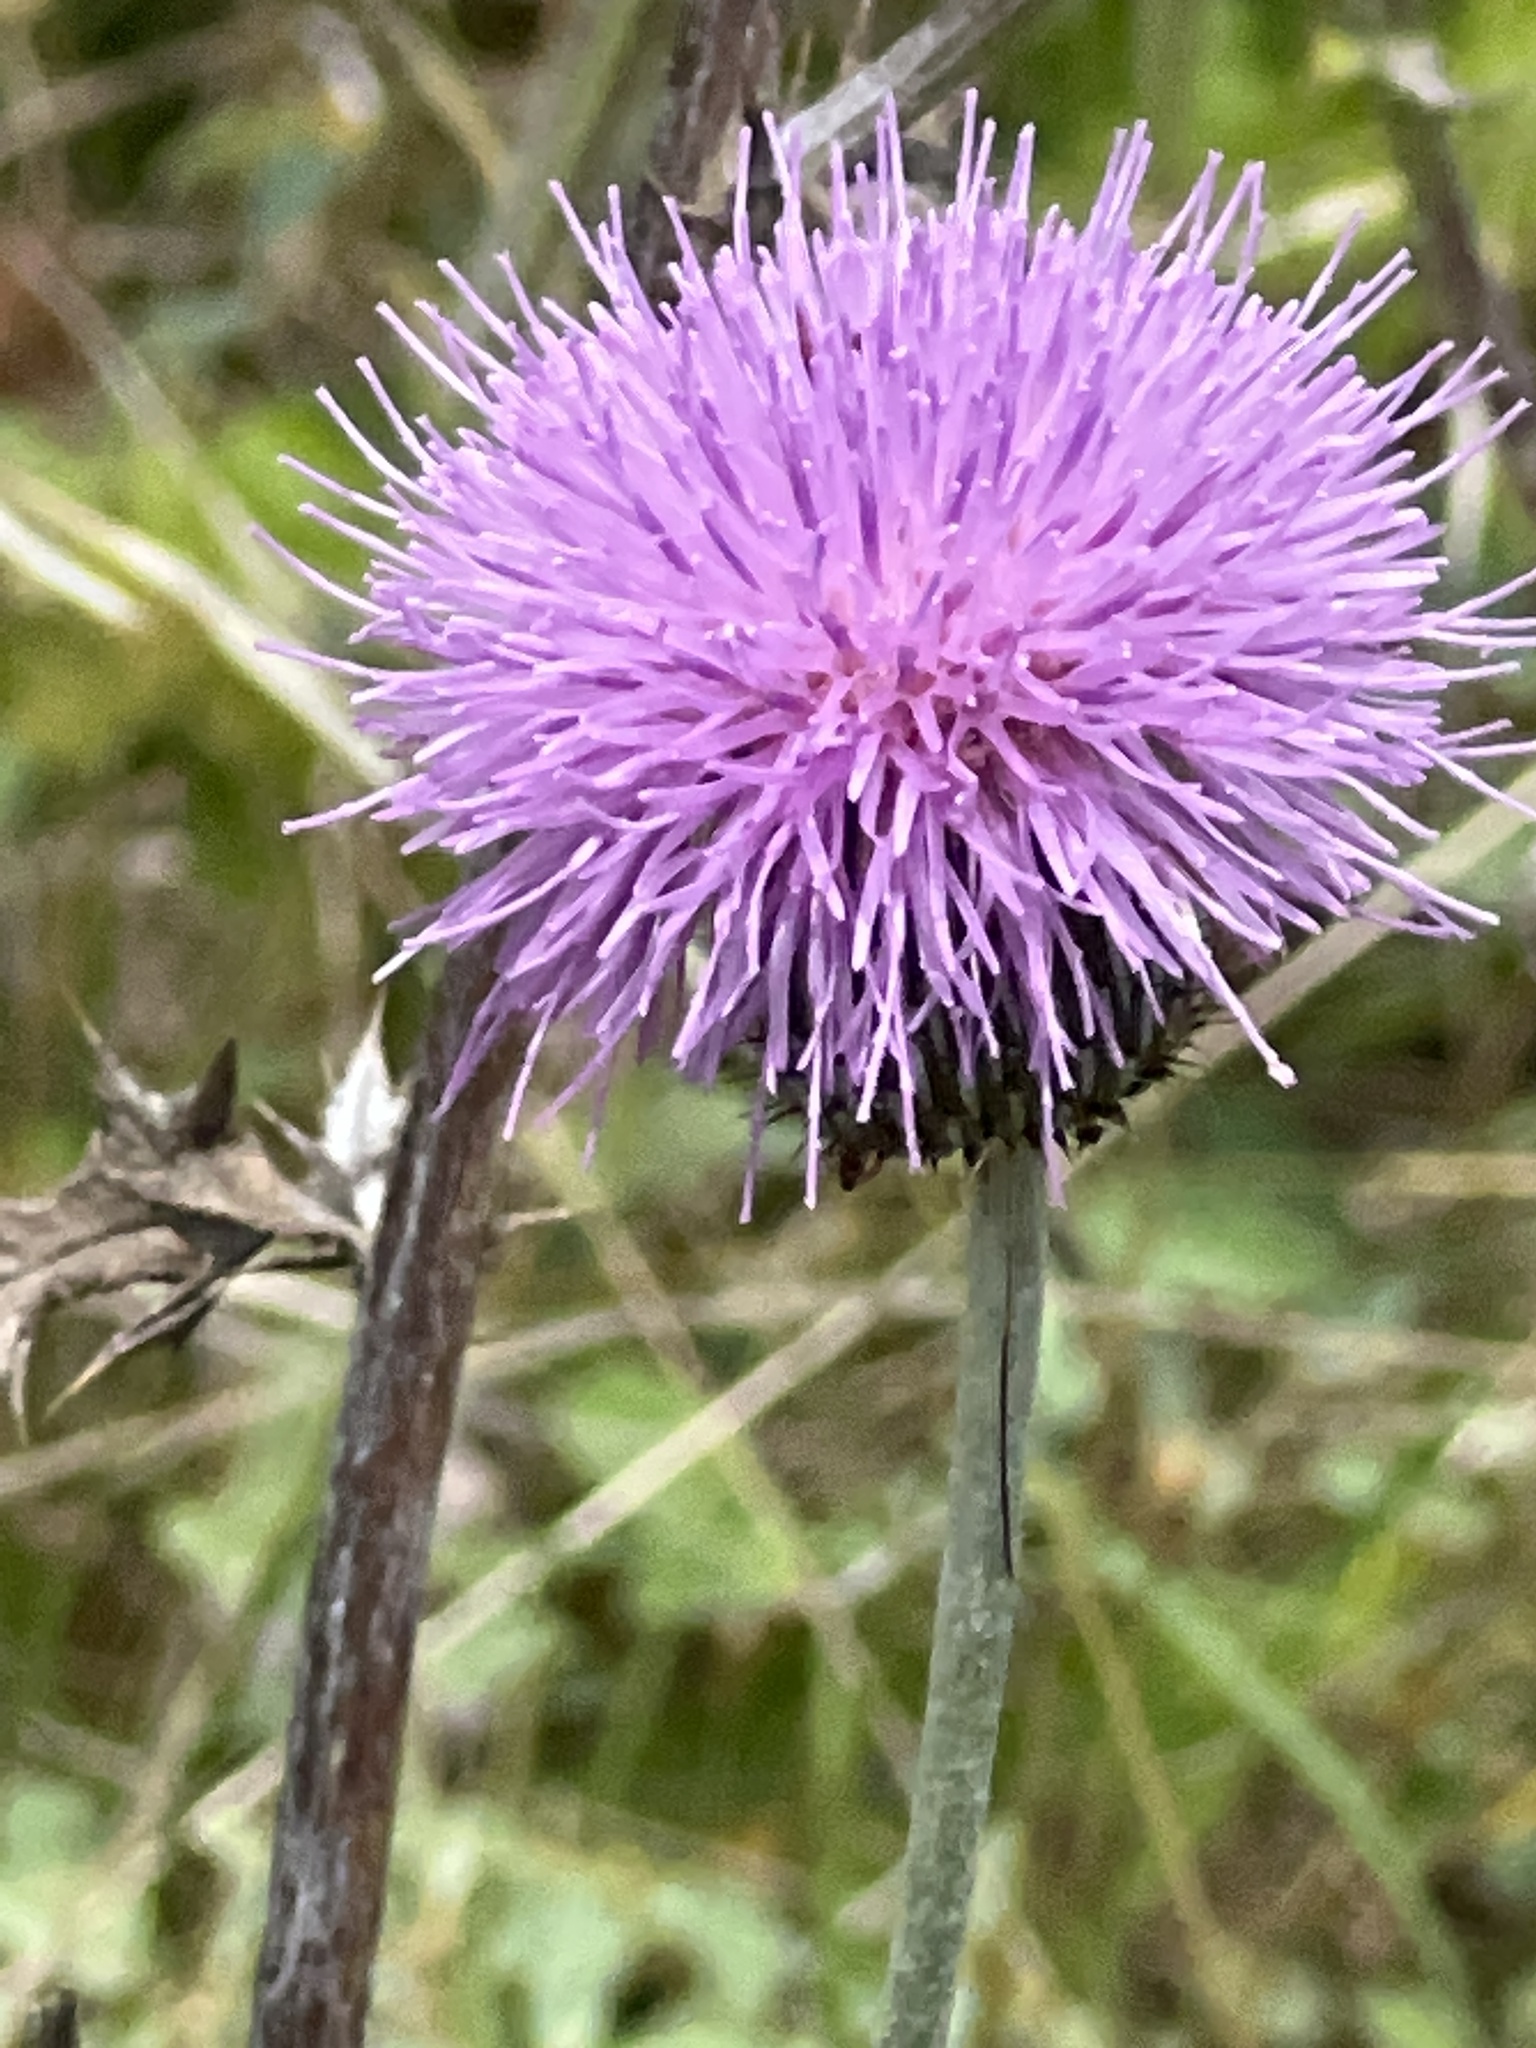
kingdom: Plantae
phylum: Tracheophyta
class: Magnoliopsida
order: Asterales
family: Asteraceae
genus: Cirsium
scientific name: Cirsium texanum
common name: Texas purple thistle
